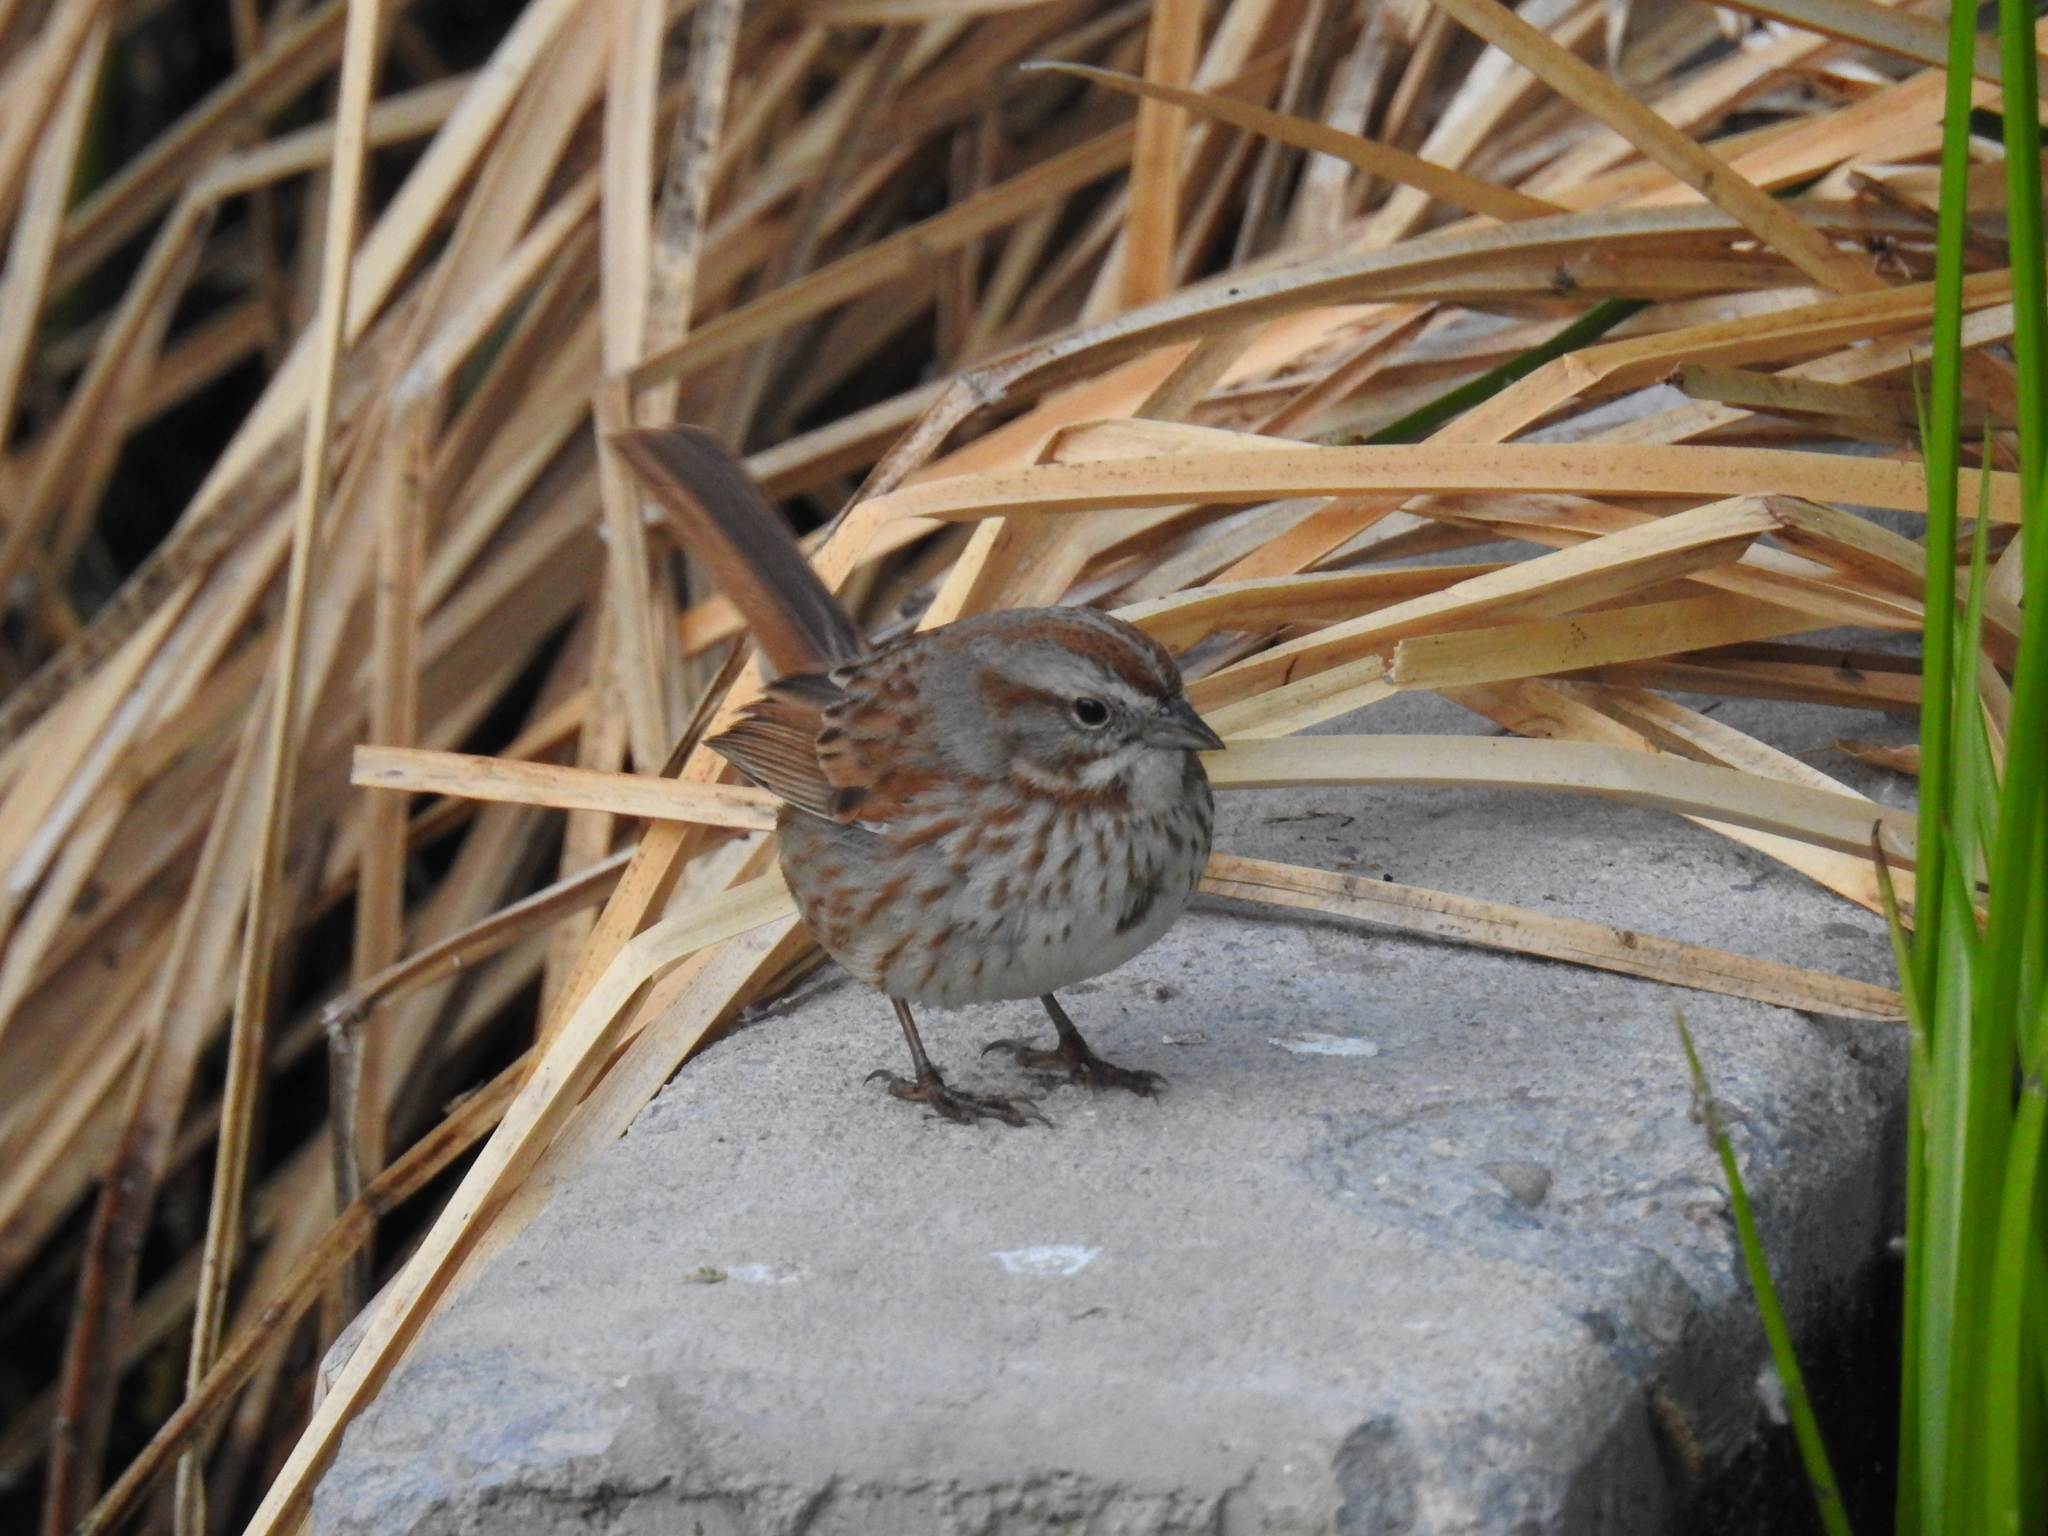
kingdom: Animalia
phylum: Chordata
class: Aves
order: Passeriformes
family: Passerellidae
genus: Melospiza
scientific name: Melospiza melodia
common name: Song sparrow
